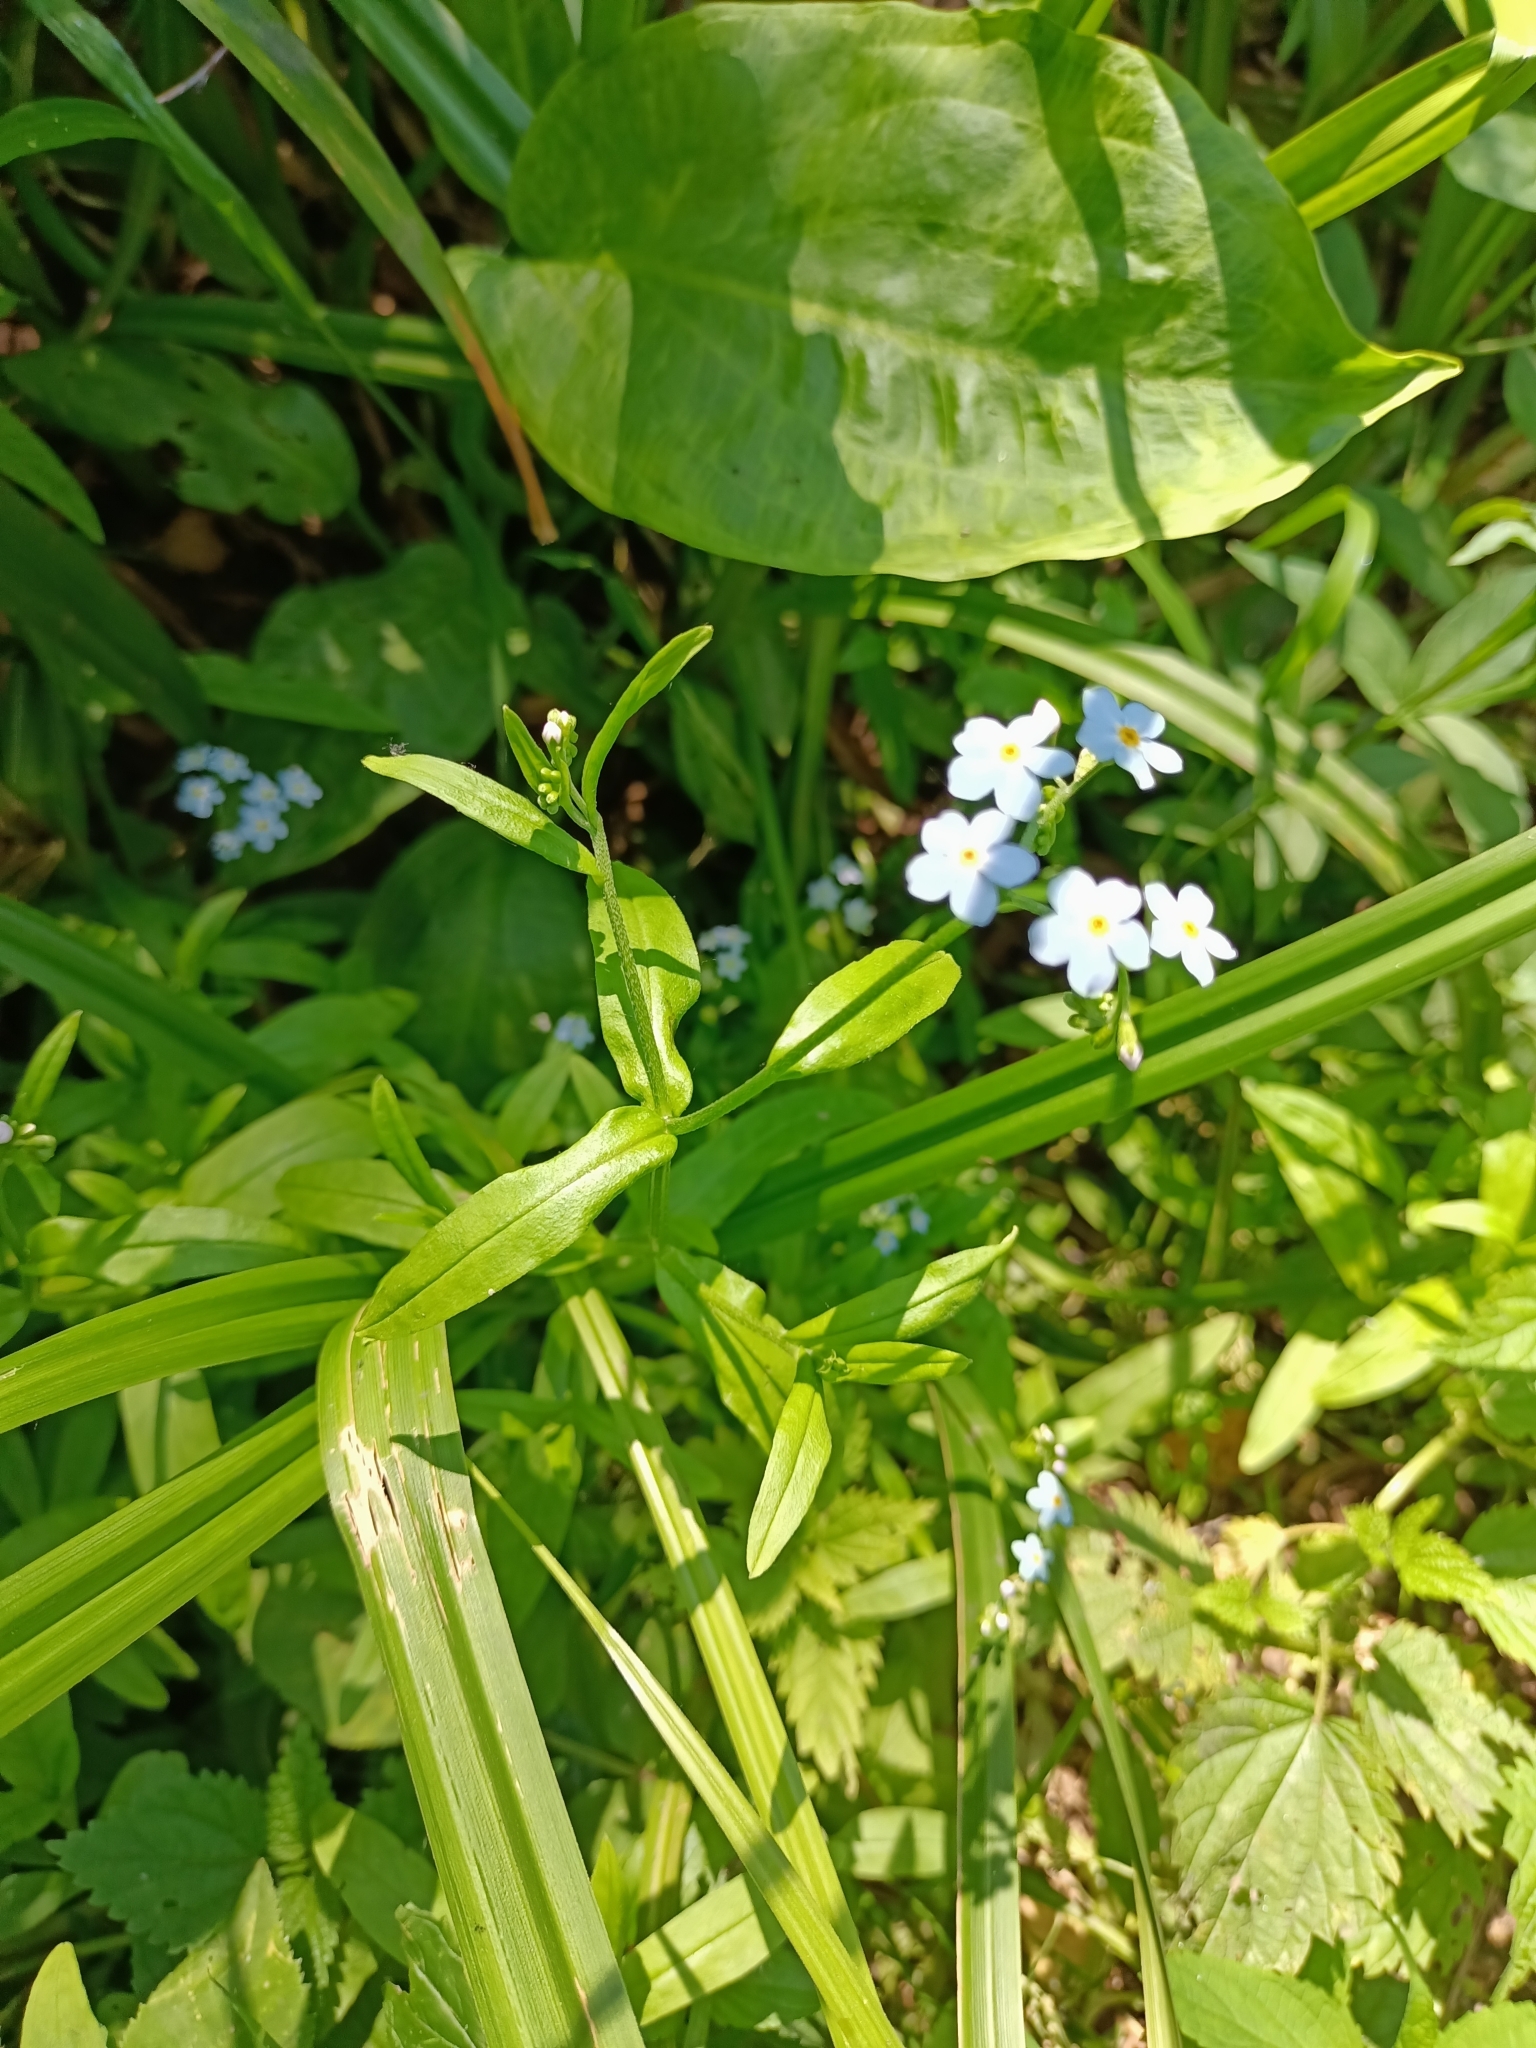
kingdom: Plantae
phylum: Tracheophyta
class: Magnoliopsida
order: Boraginales
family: Boraginaceae
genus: Myosotis
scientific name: Myosotis scorpioides
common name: Water forget-me-not
